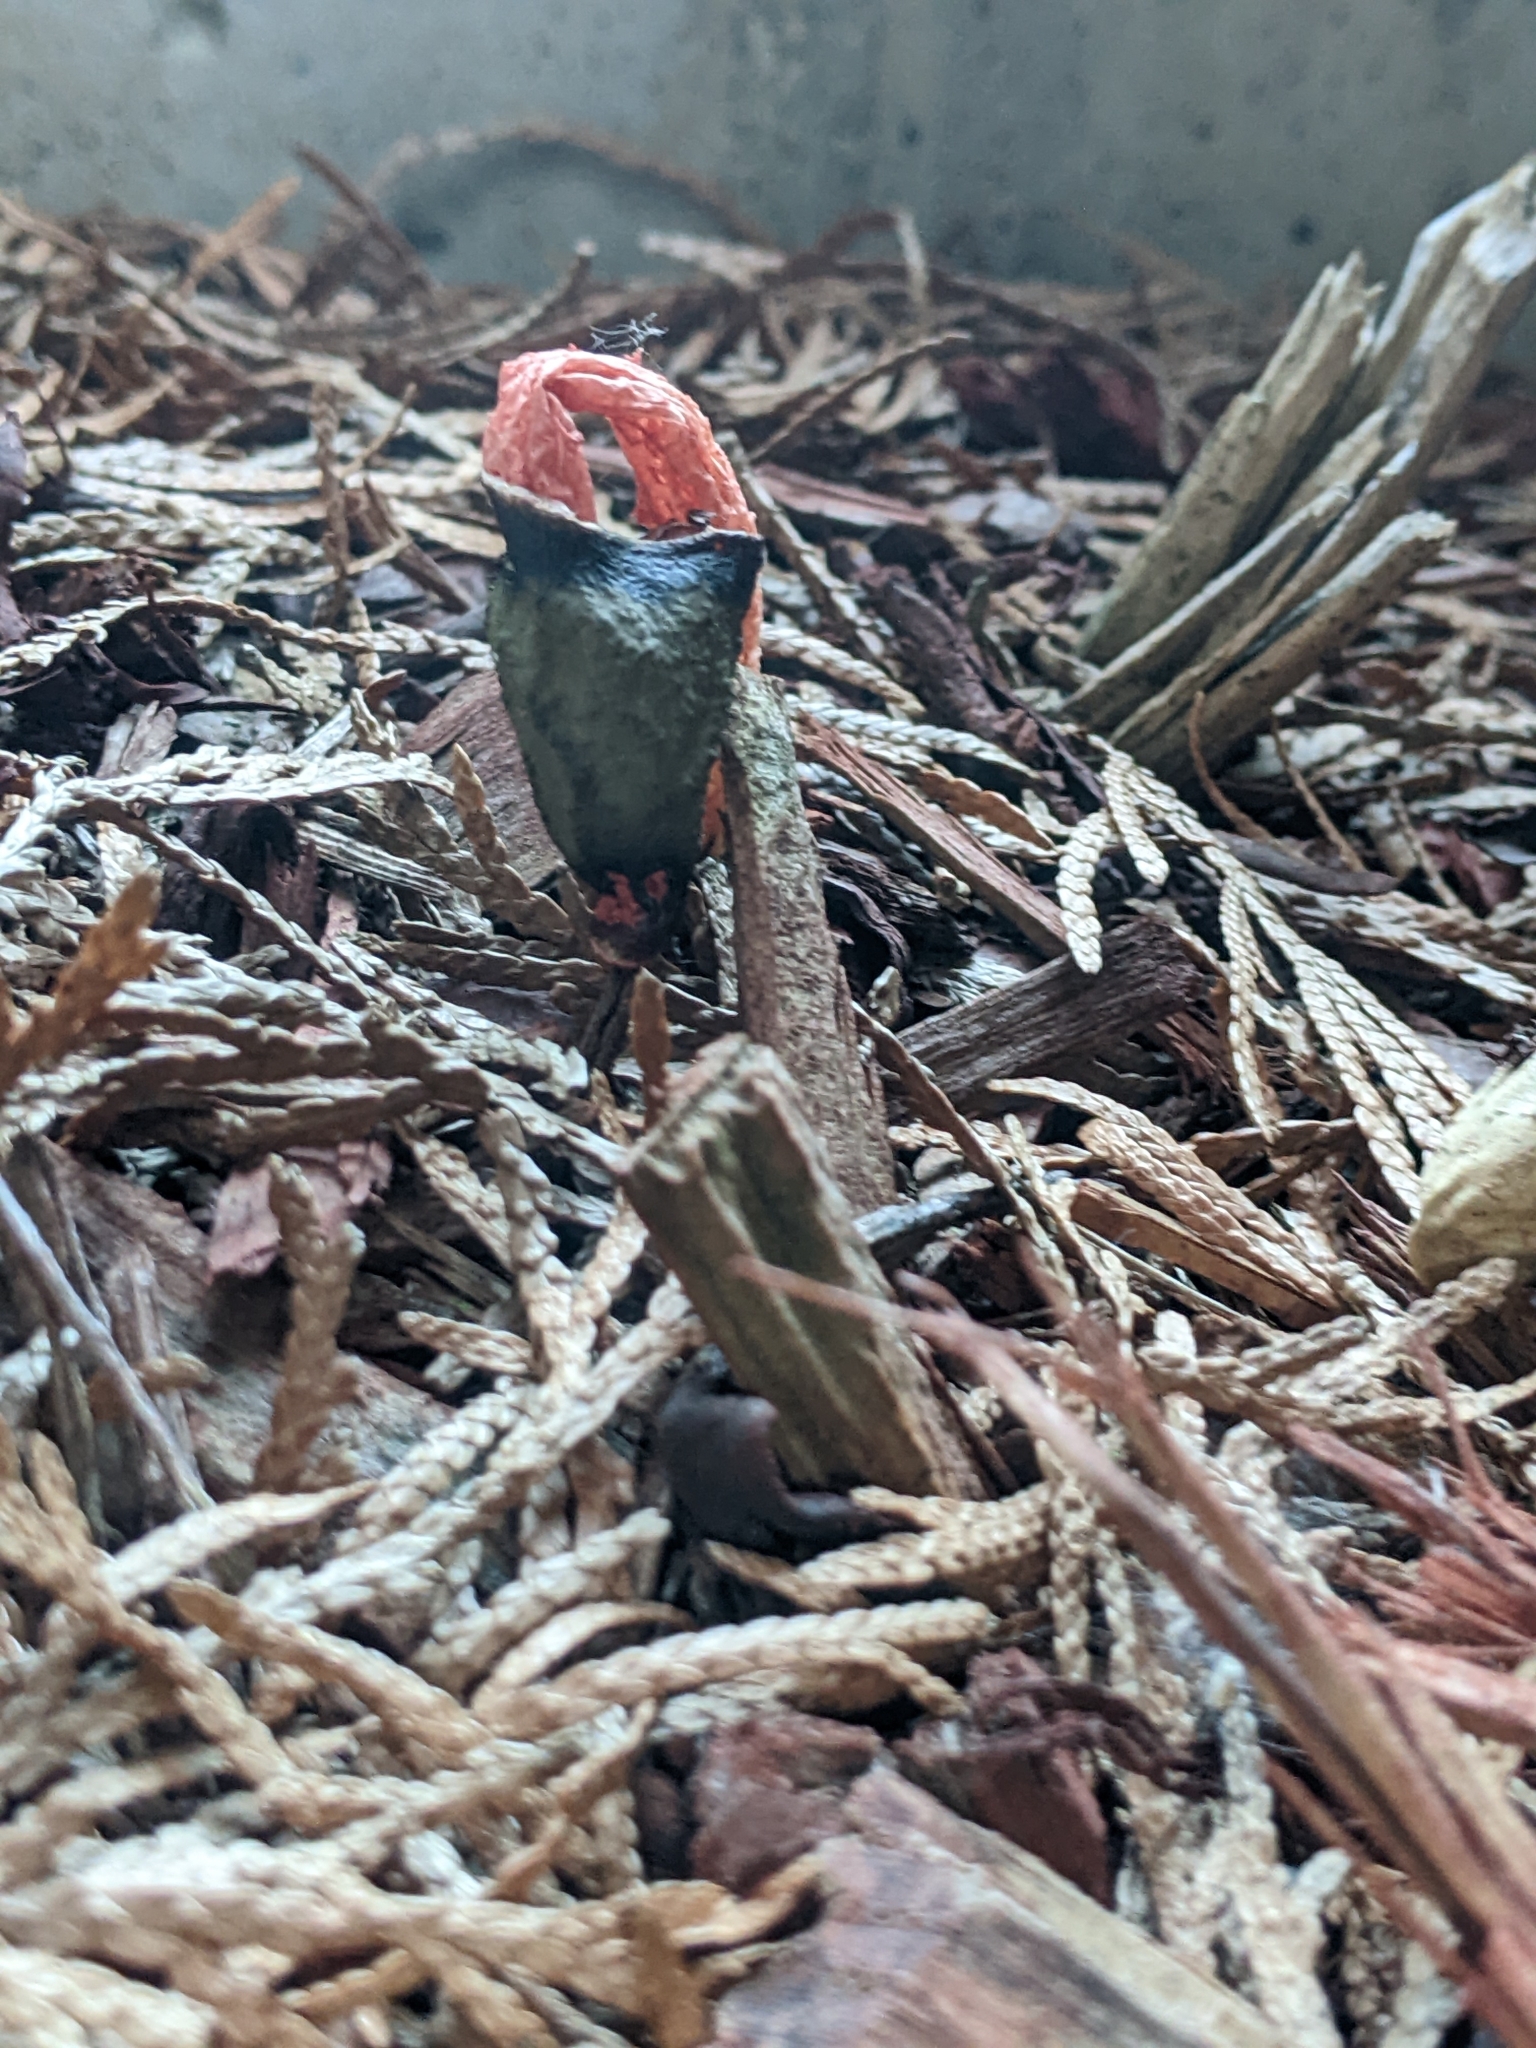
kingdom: Fungi
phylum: Basidiomycota
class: Agaricomycetes
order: Phallales
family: Phallaceae
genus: Phallus
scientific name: Phallus rugulosus
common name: Wrinkly stinkhorn
